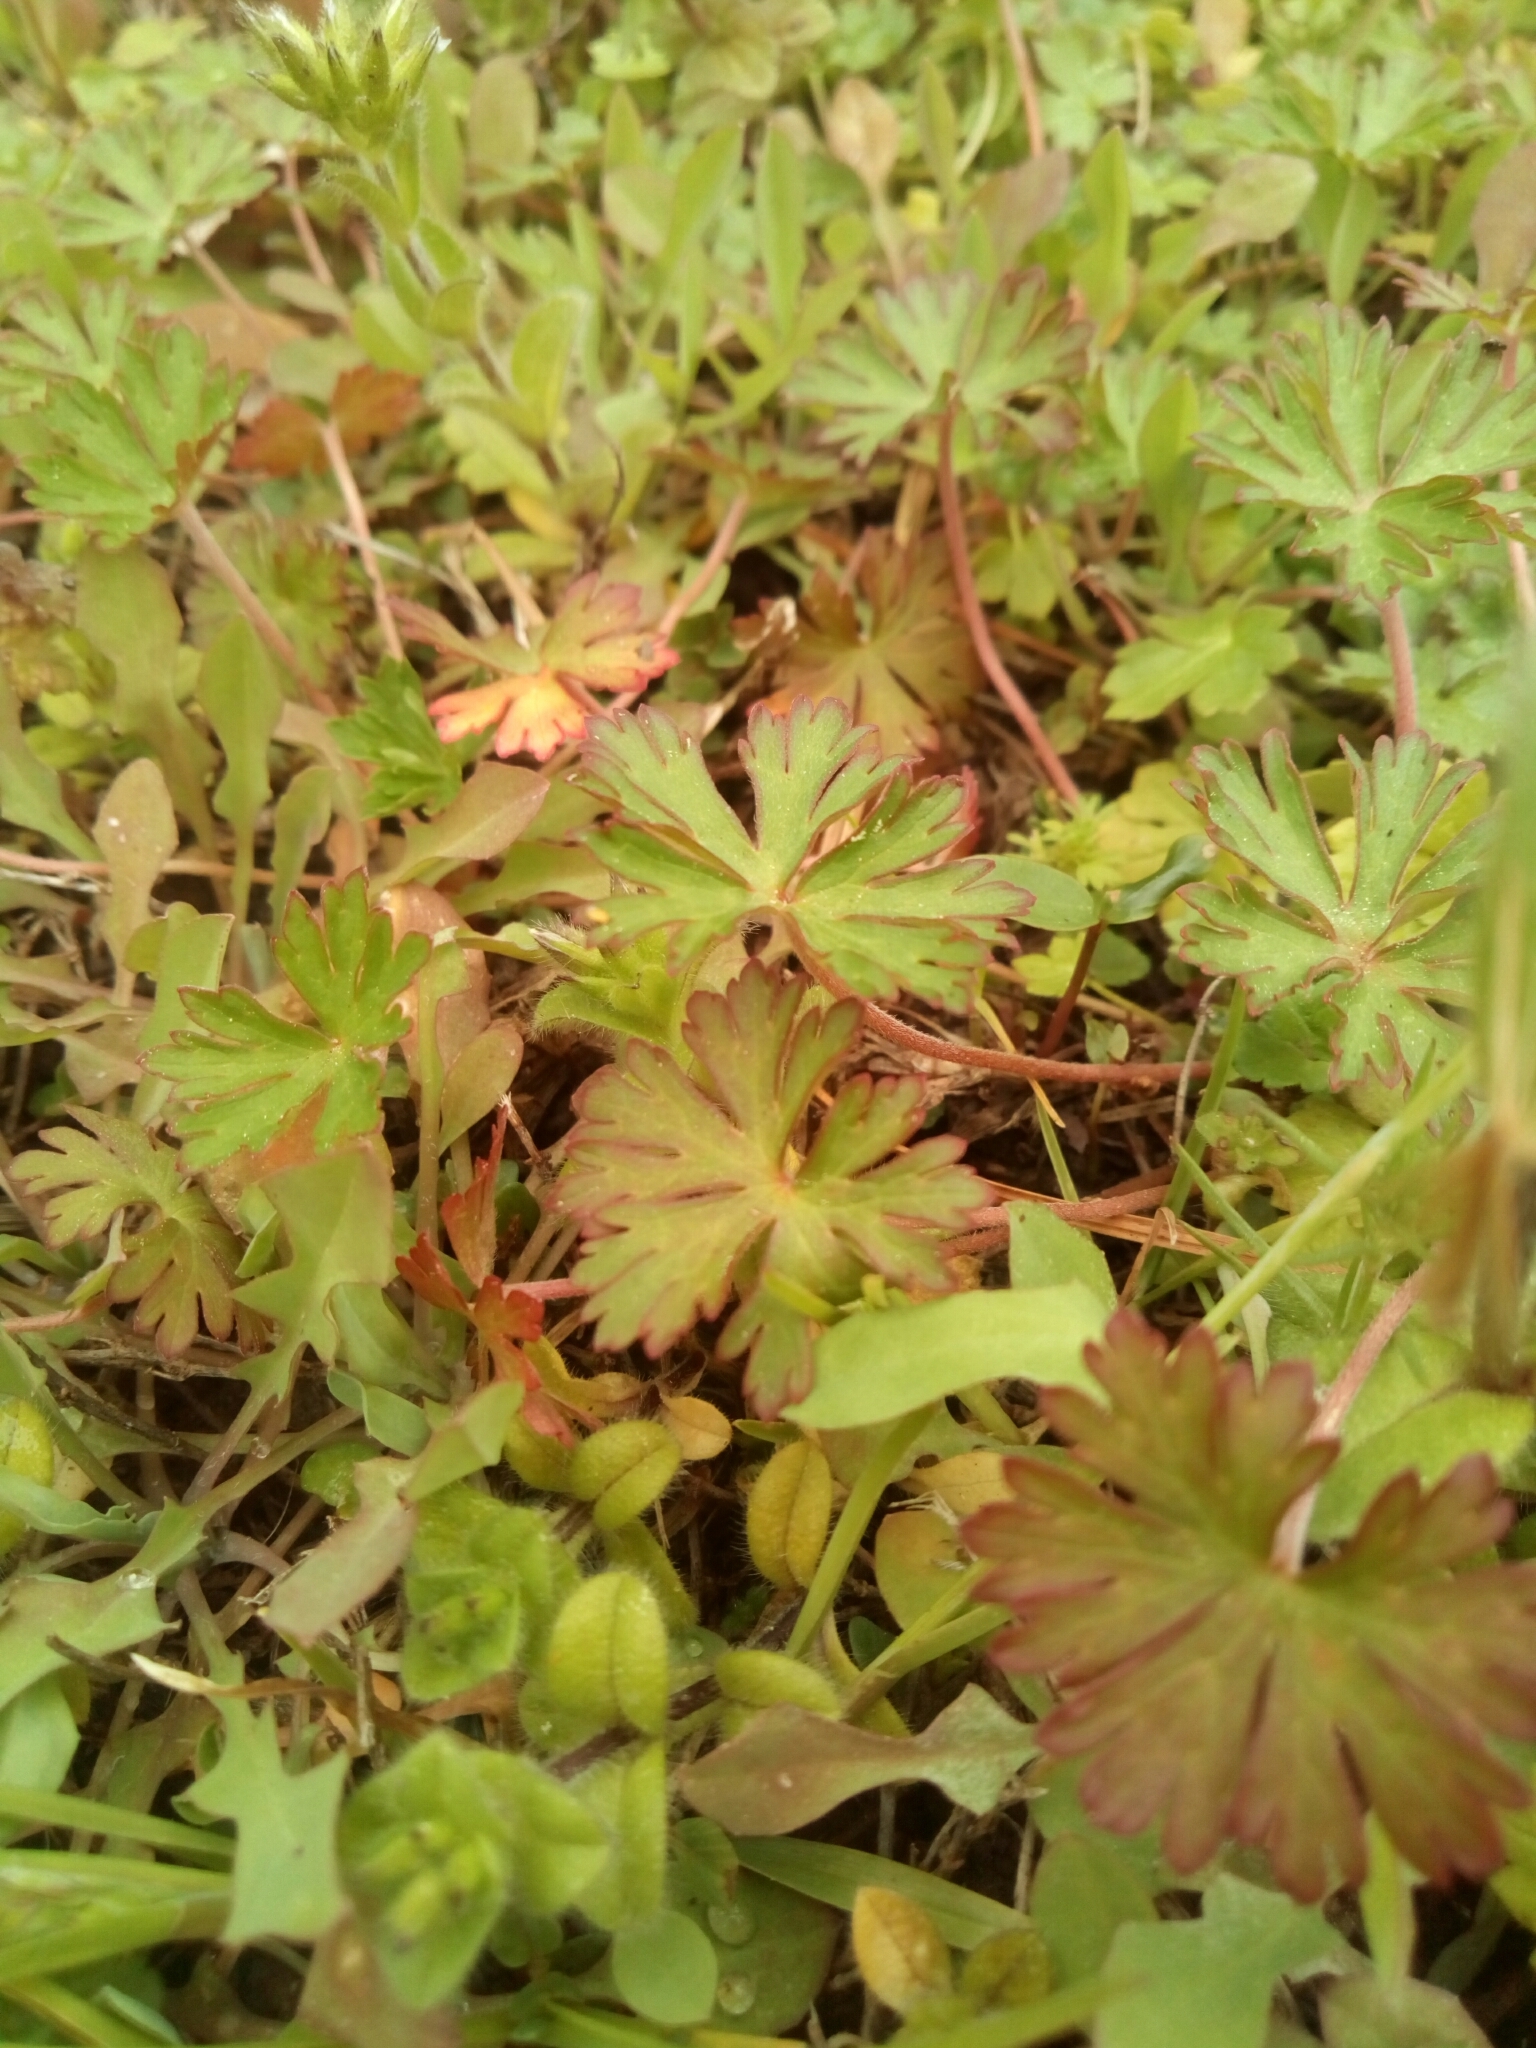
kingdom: Plantae
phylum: Tracheophyta
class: Magnoliopsida
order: Geraniales
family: Geraniaceae
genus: Geranium
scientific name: Geranium carolinianum
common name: Carolina crane's-bill
